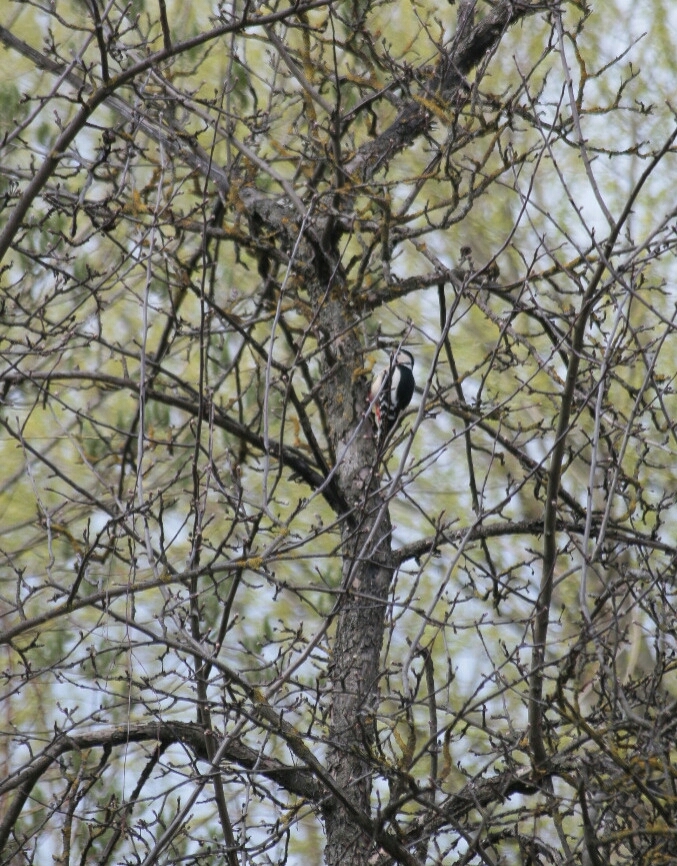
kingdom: Animalia
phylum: Chordata
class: Aves
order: Piciformes
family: Picidae
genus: Dendrocopos
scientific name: Dendrocopos major
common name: Great spotted woodpecker
